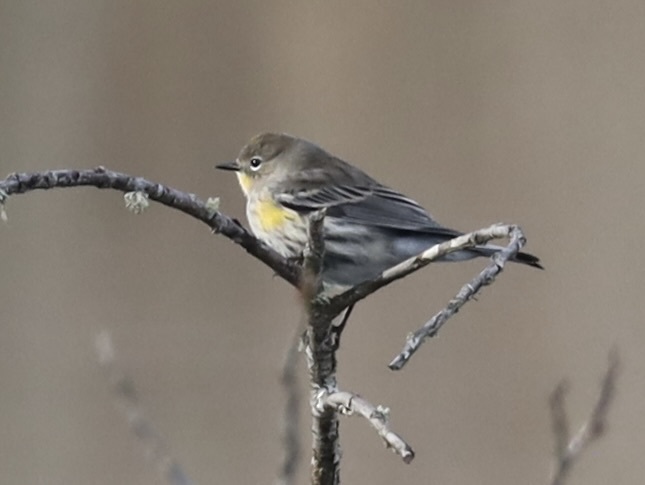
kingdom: Animalia
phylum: Chordata
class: Aves
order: Passeriformes
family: Parulidae
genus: Setophaga
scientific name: Setophaga coronata
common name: Myrtle warbler
